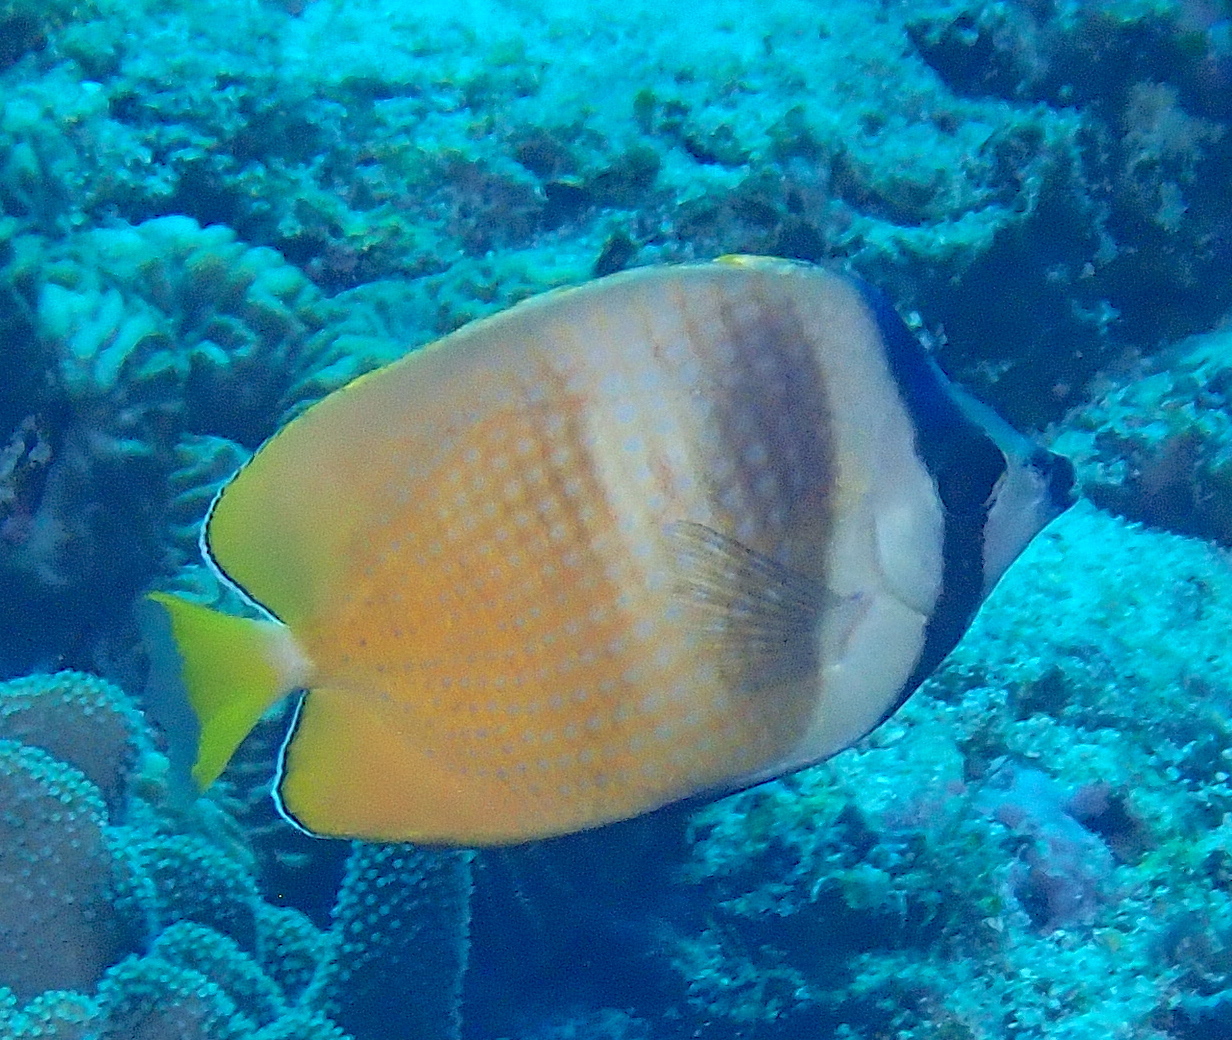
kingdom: Animalia
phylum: Chordata
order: Perciformes
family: Chaetodontidae
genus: Chaetodon
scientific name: Chaetodon kleinii
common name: Klein's butterflyfish
